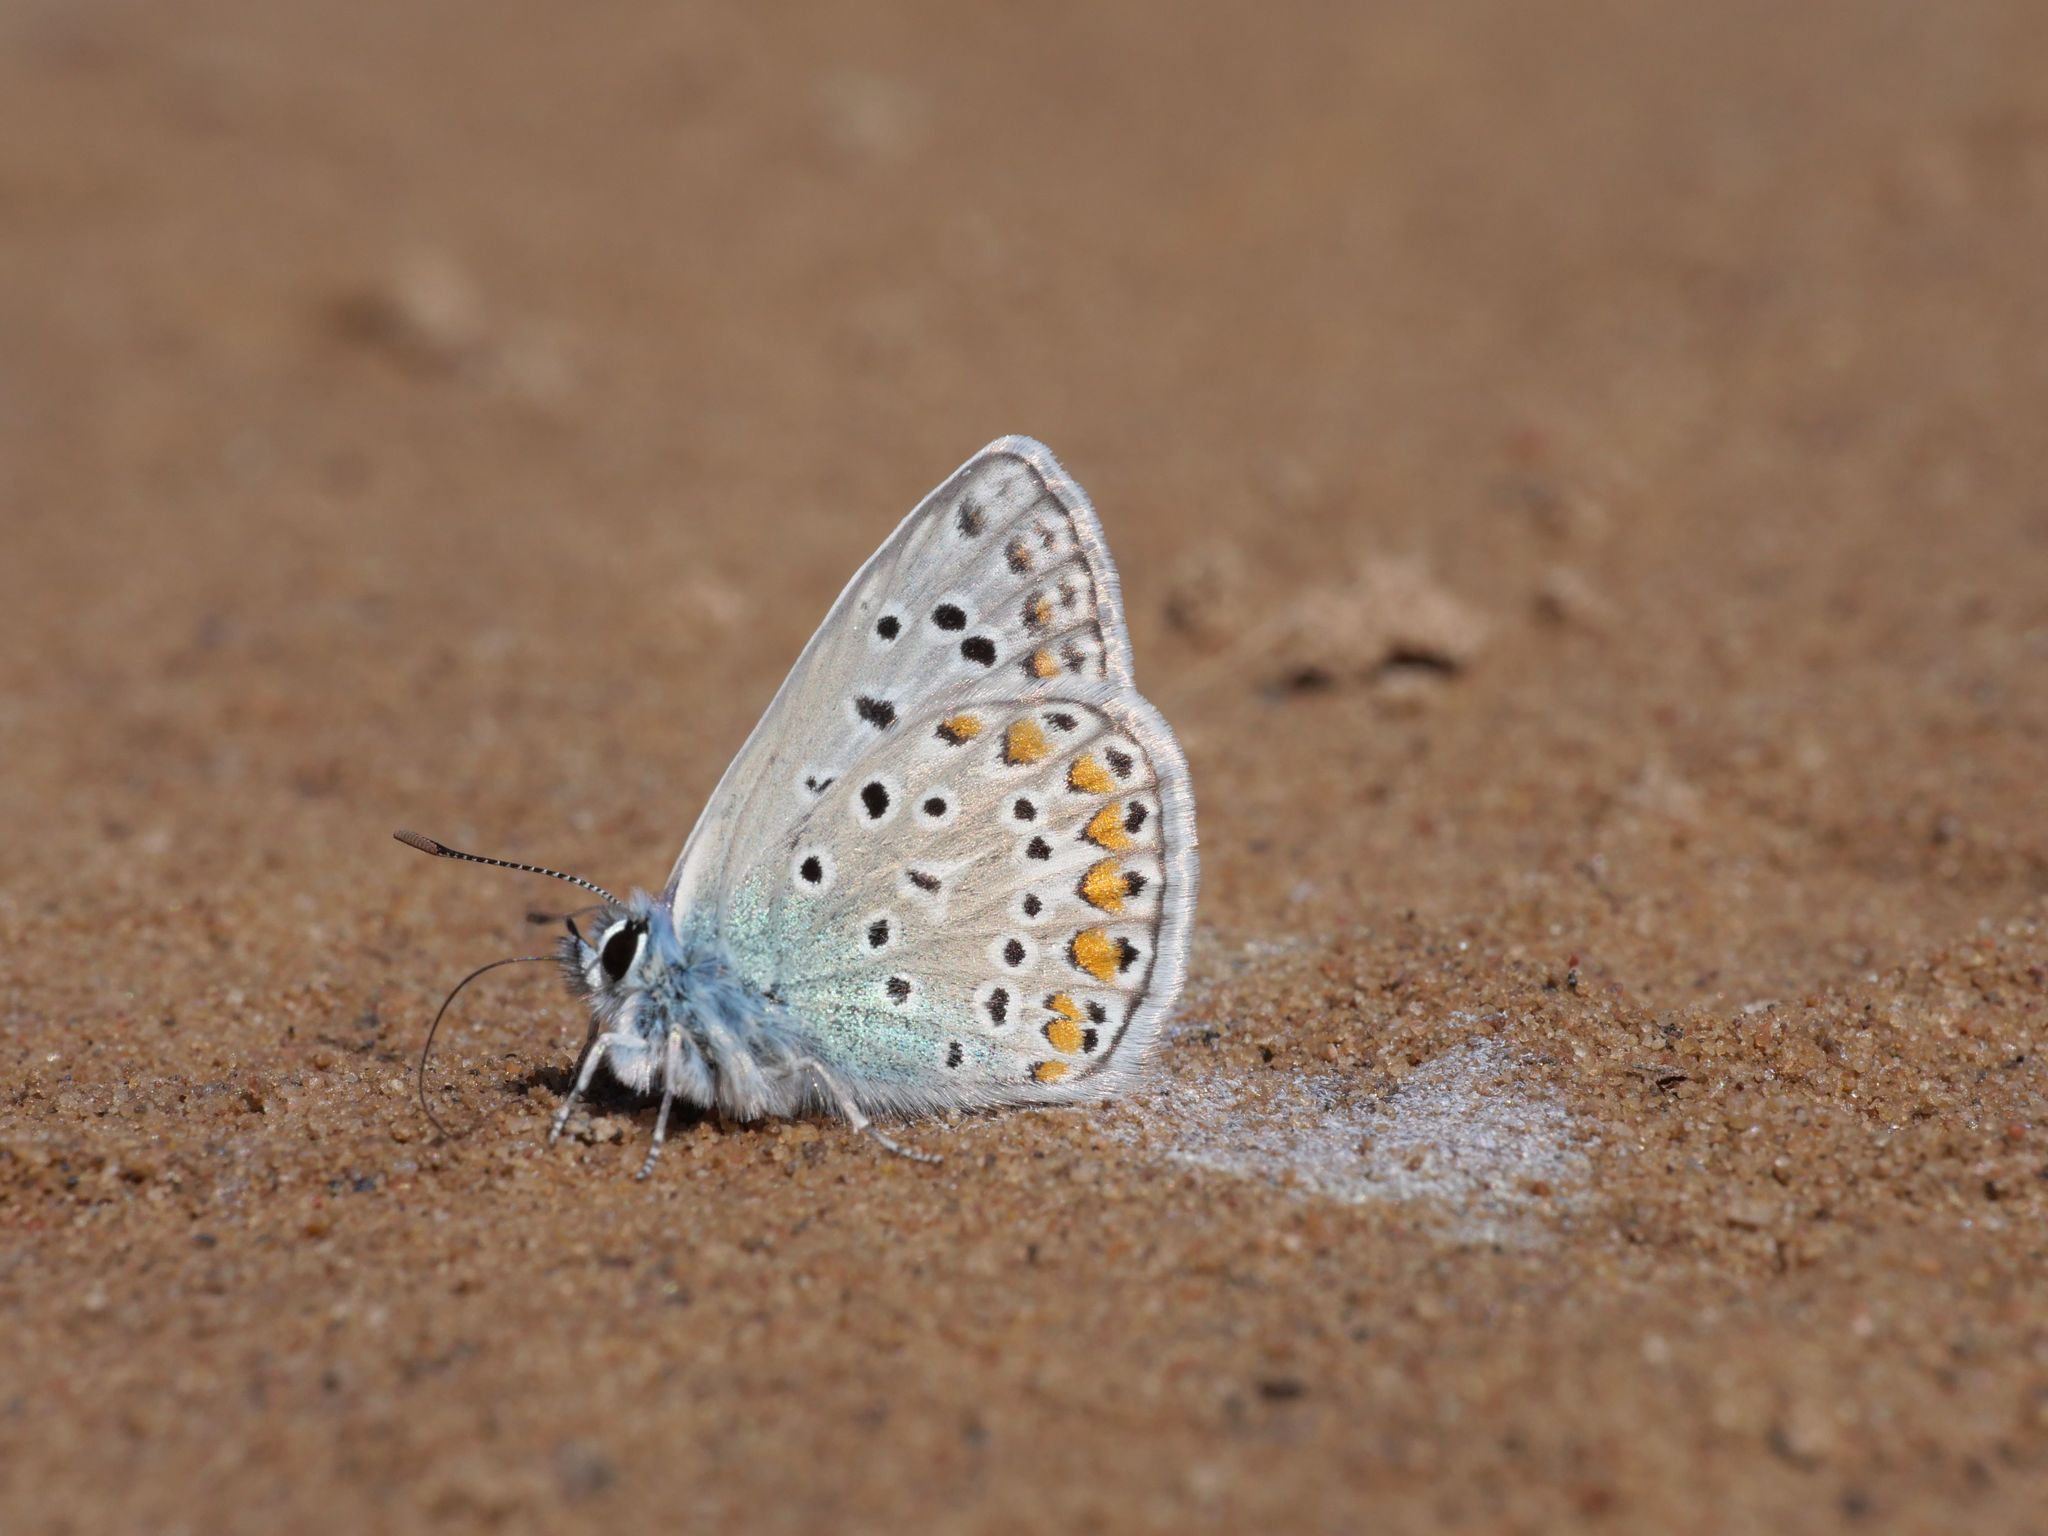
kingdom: Animalia
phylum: Arthropoda
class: Insecta
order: Lepidoptera
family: Lycaenidae
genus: Polyommatus
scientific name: Polyommatus icarus
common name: Common blue
